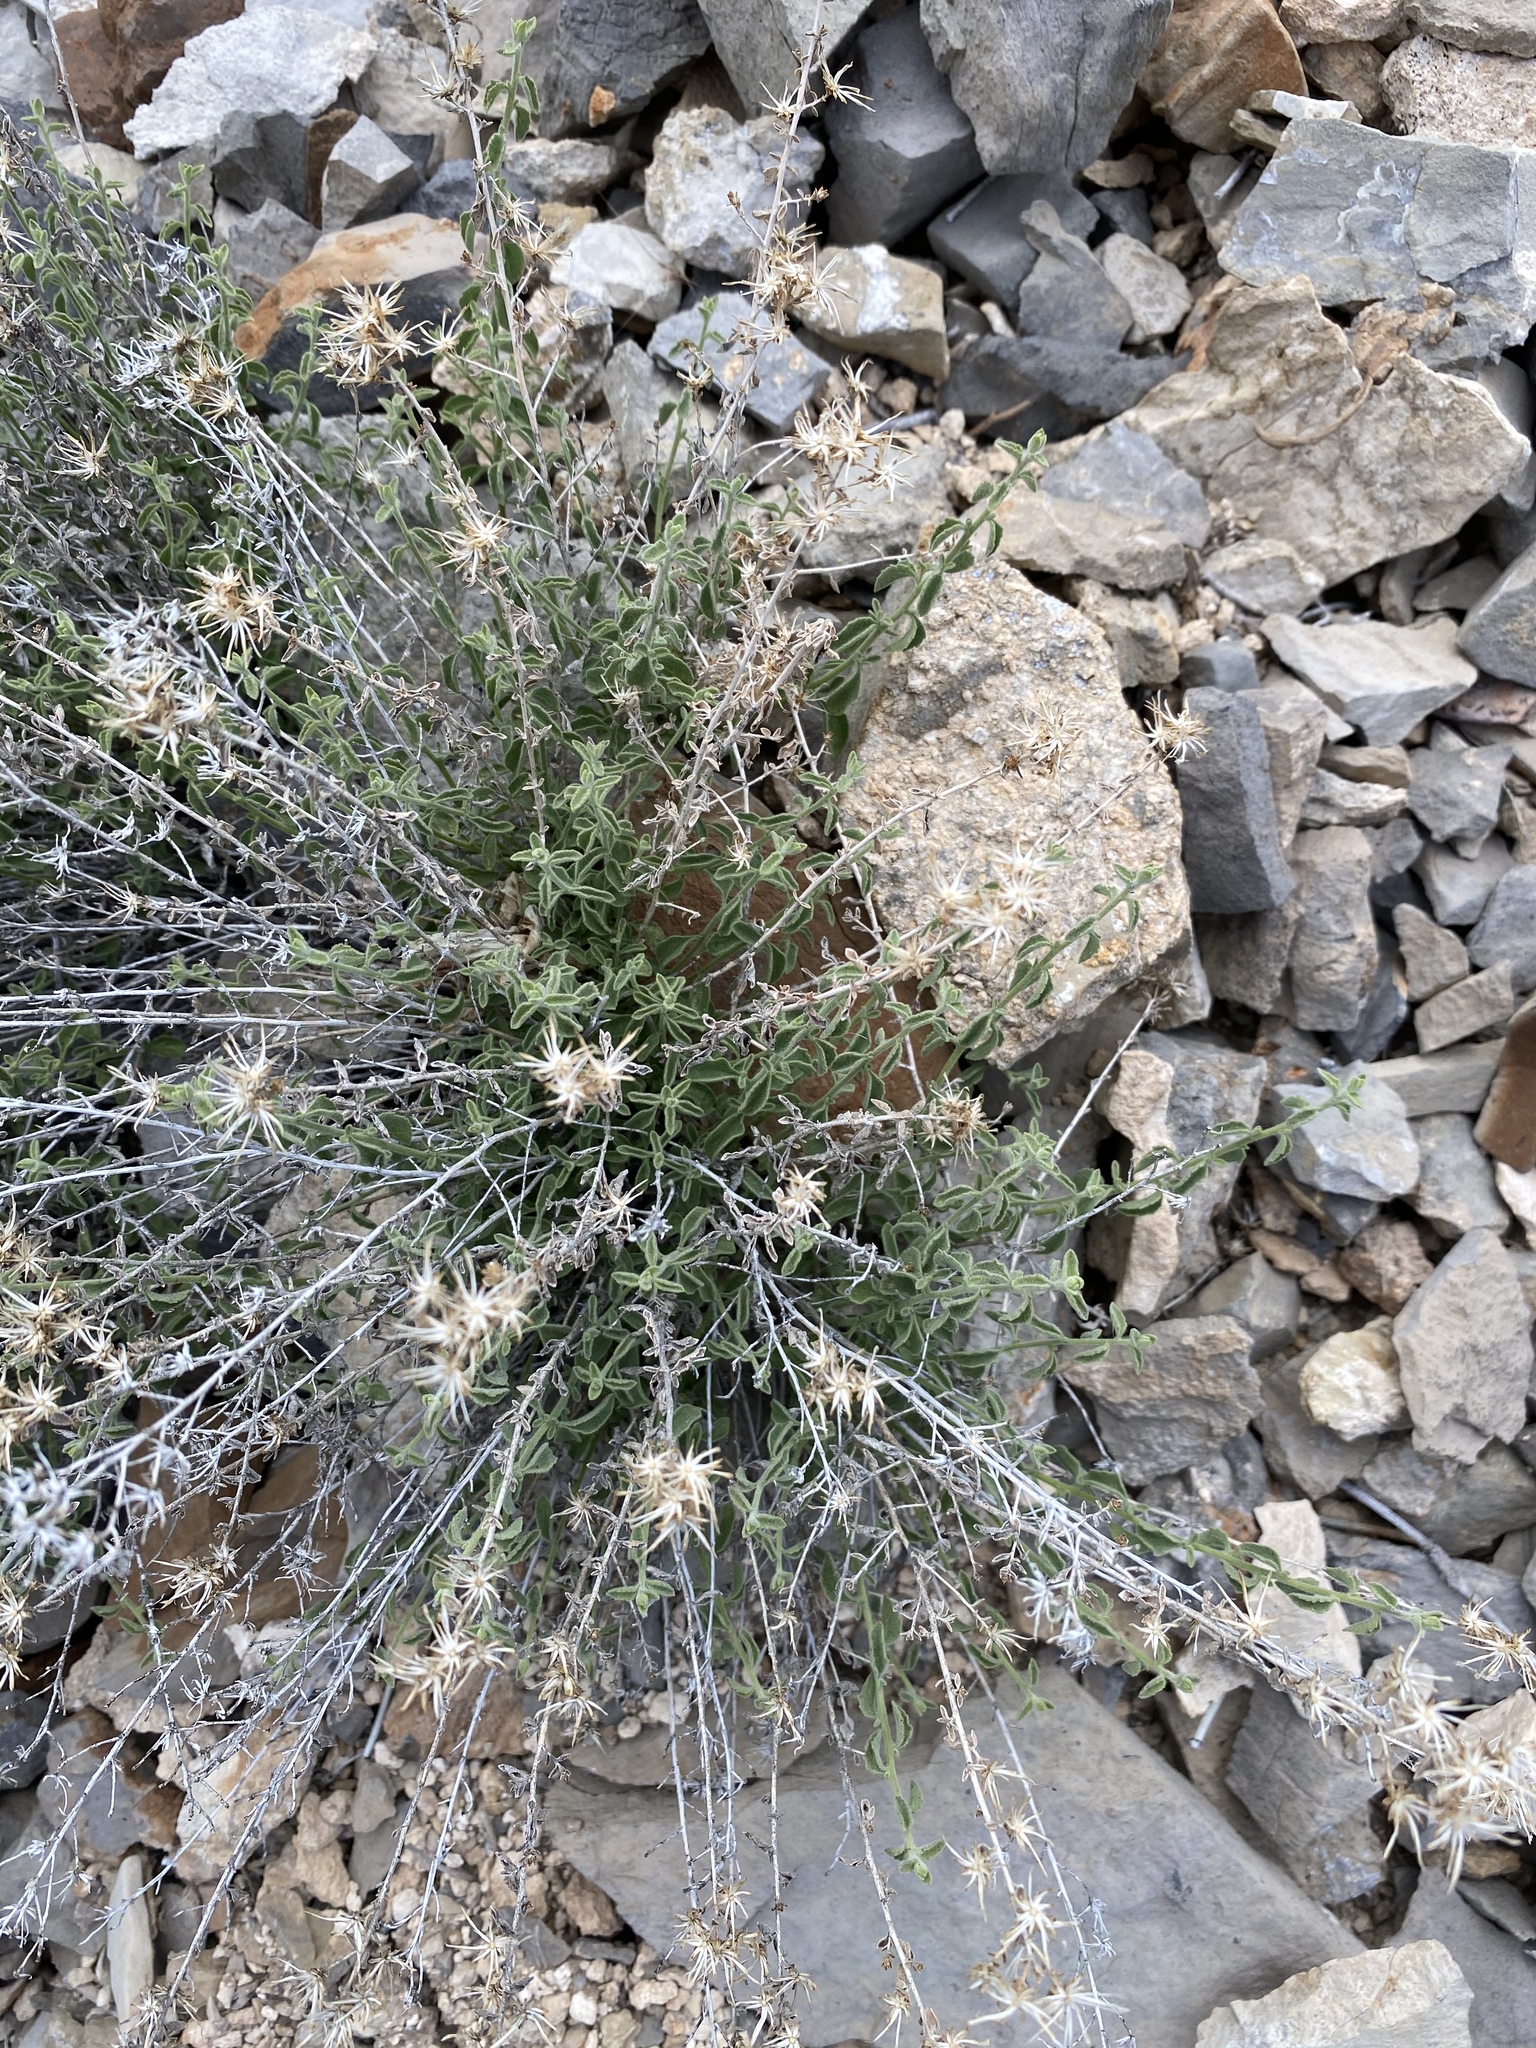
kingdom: Plantae
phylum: Tracheophyta
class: Magnoliopsida
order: Asterales
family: Asteraceae
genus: Brickellia
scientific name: Brickellia microphylla
